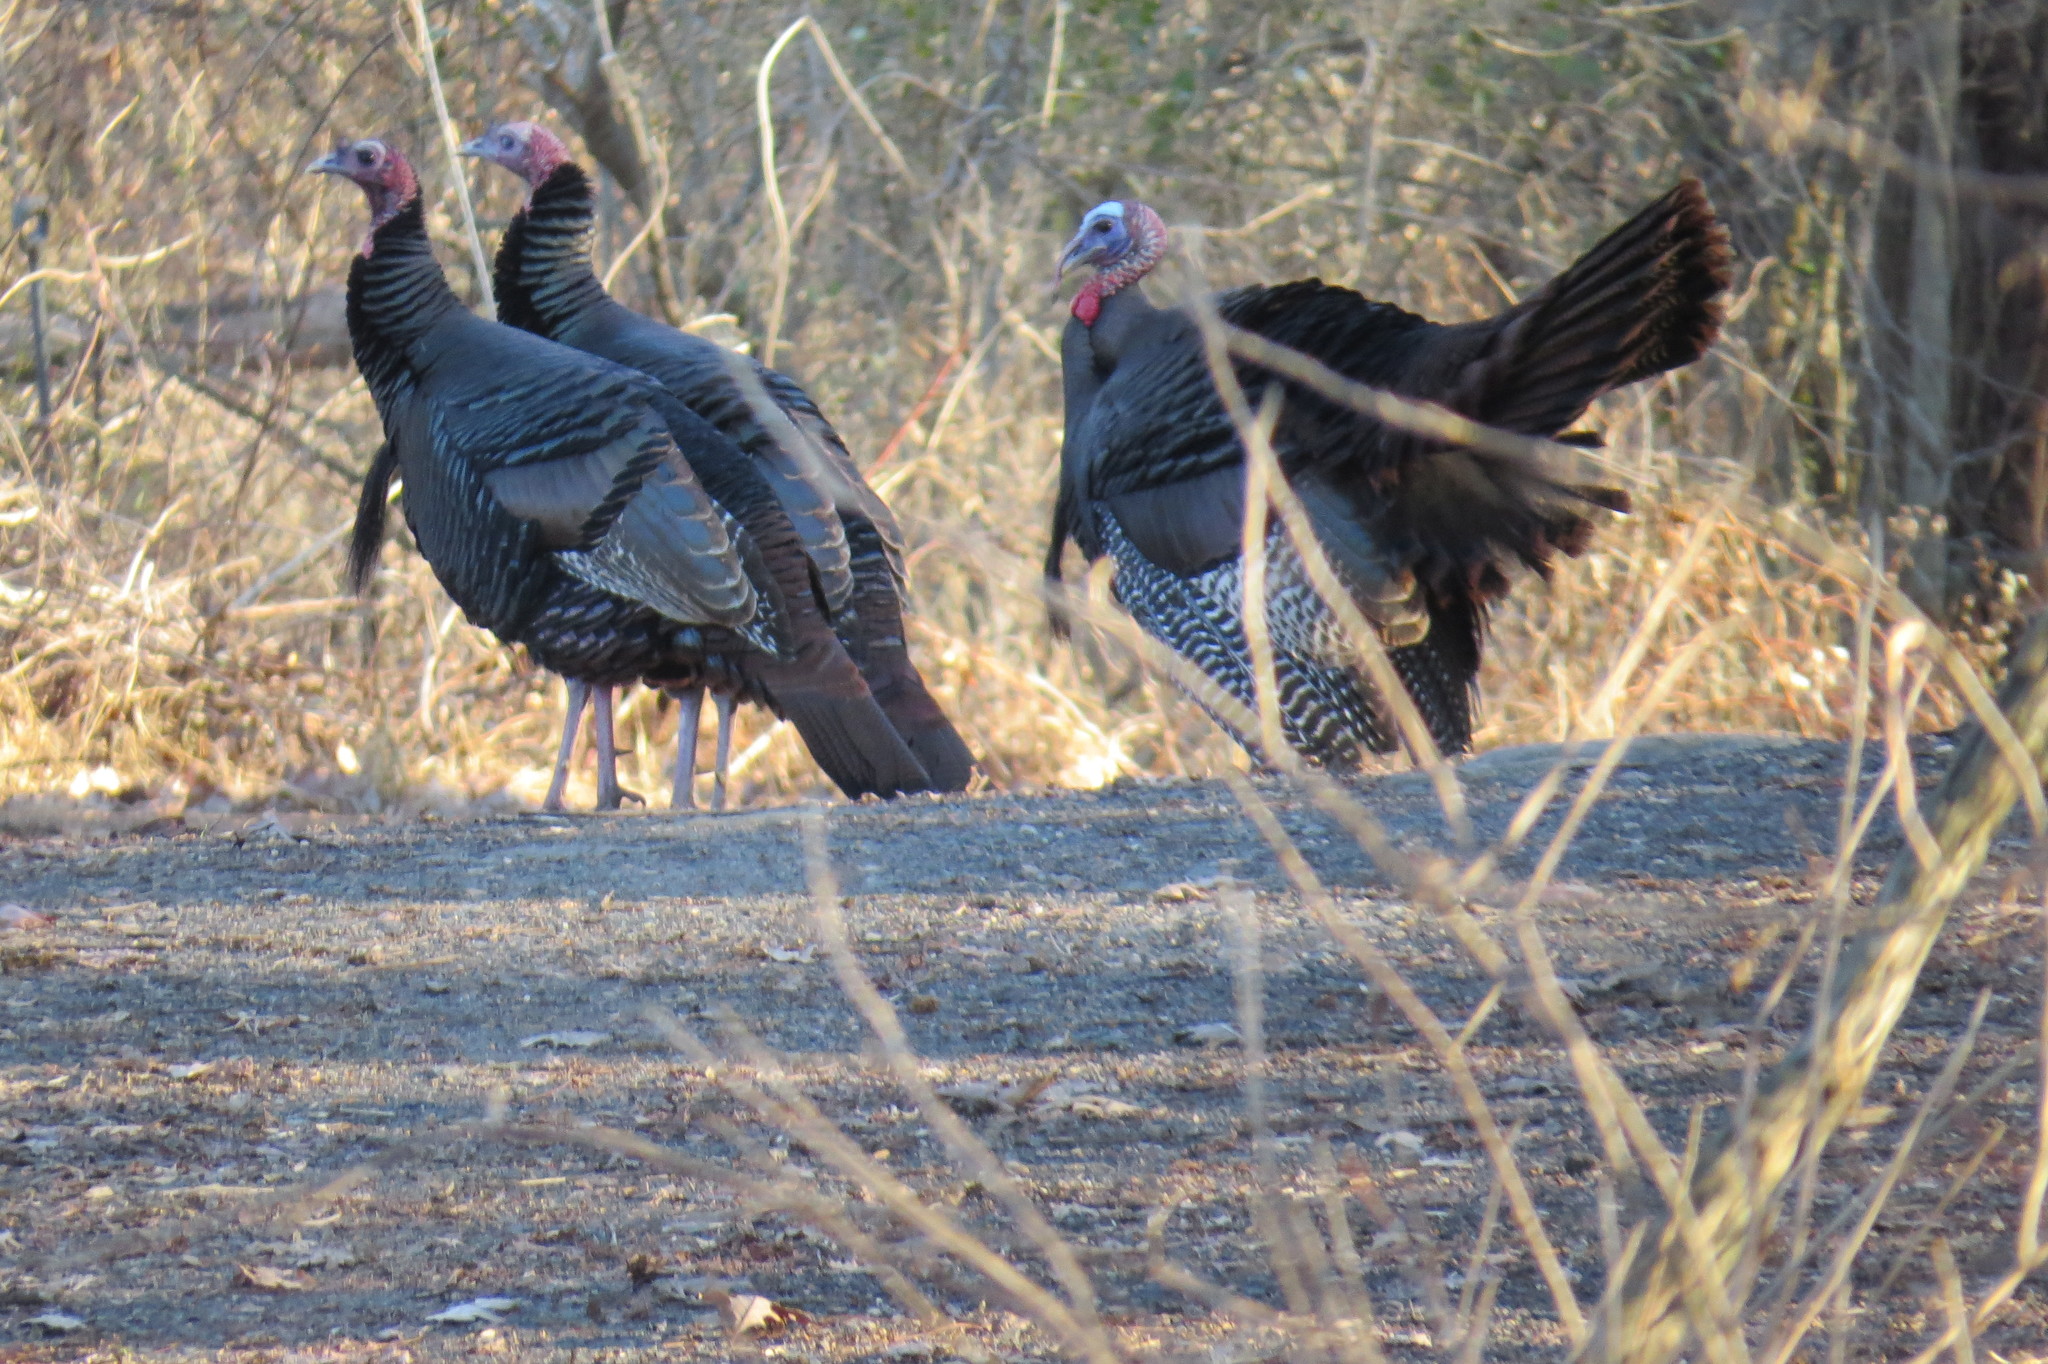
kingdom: Animalia
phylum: Chordata
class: Aves
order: Galliformes
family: Phasianidae
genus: Meleagris
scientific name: Meleagris gallopavo
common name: Wild turkey
